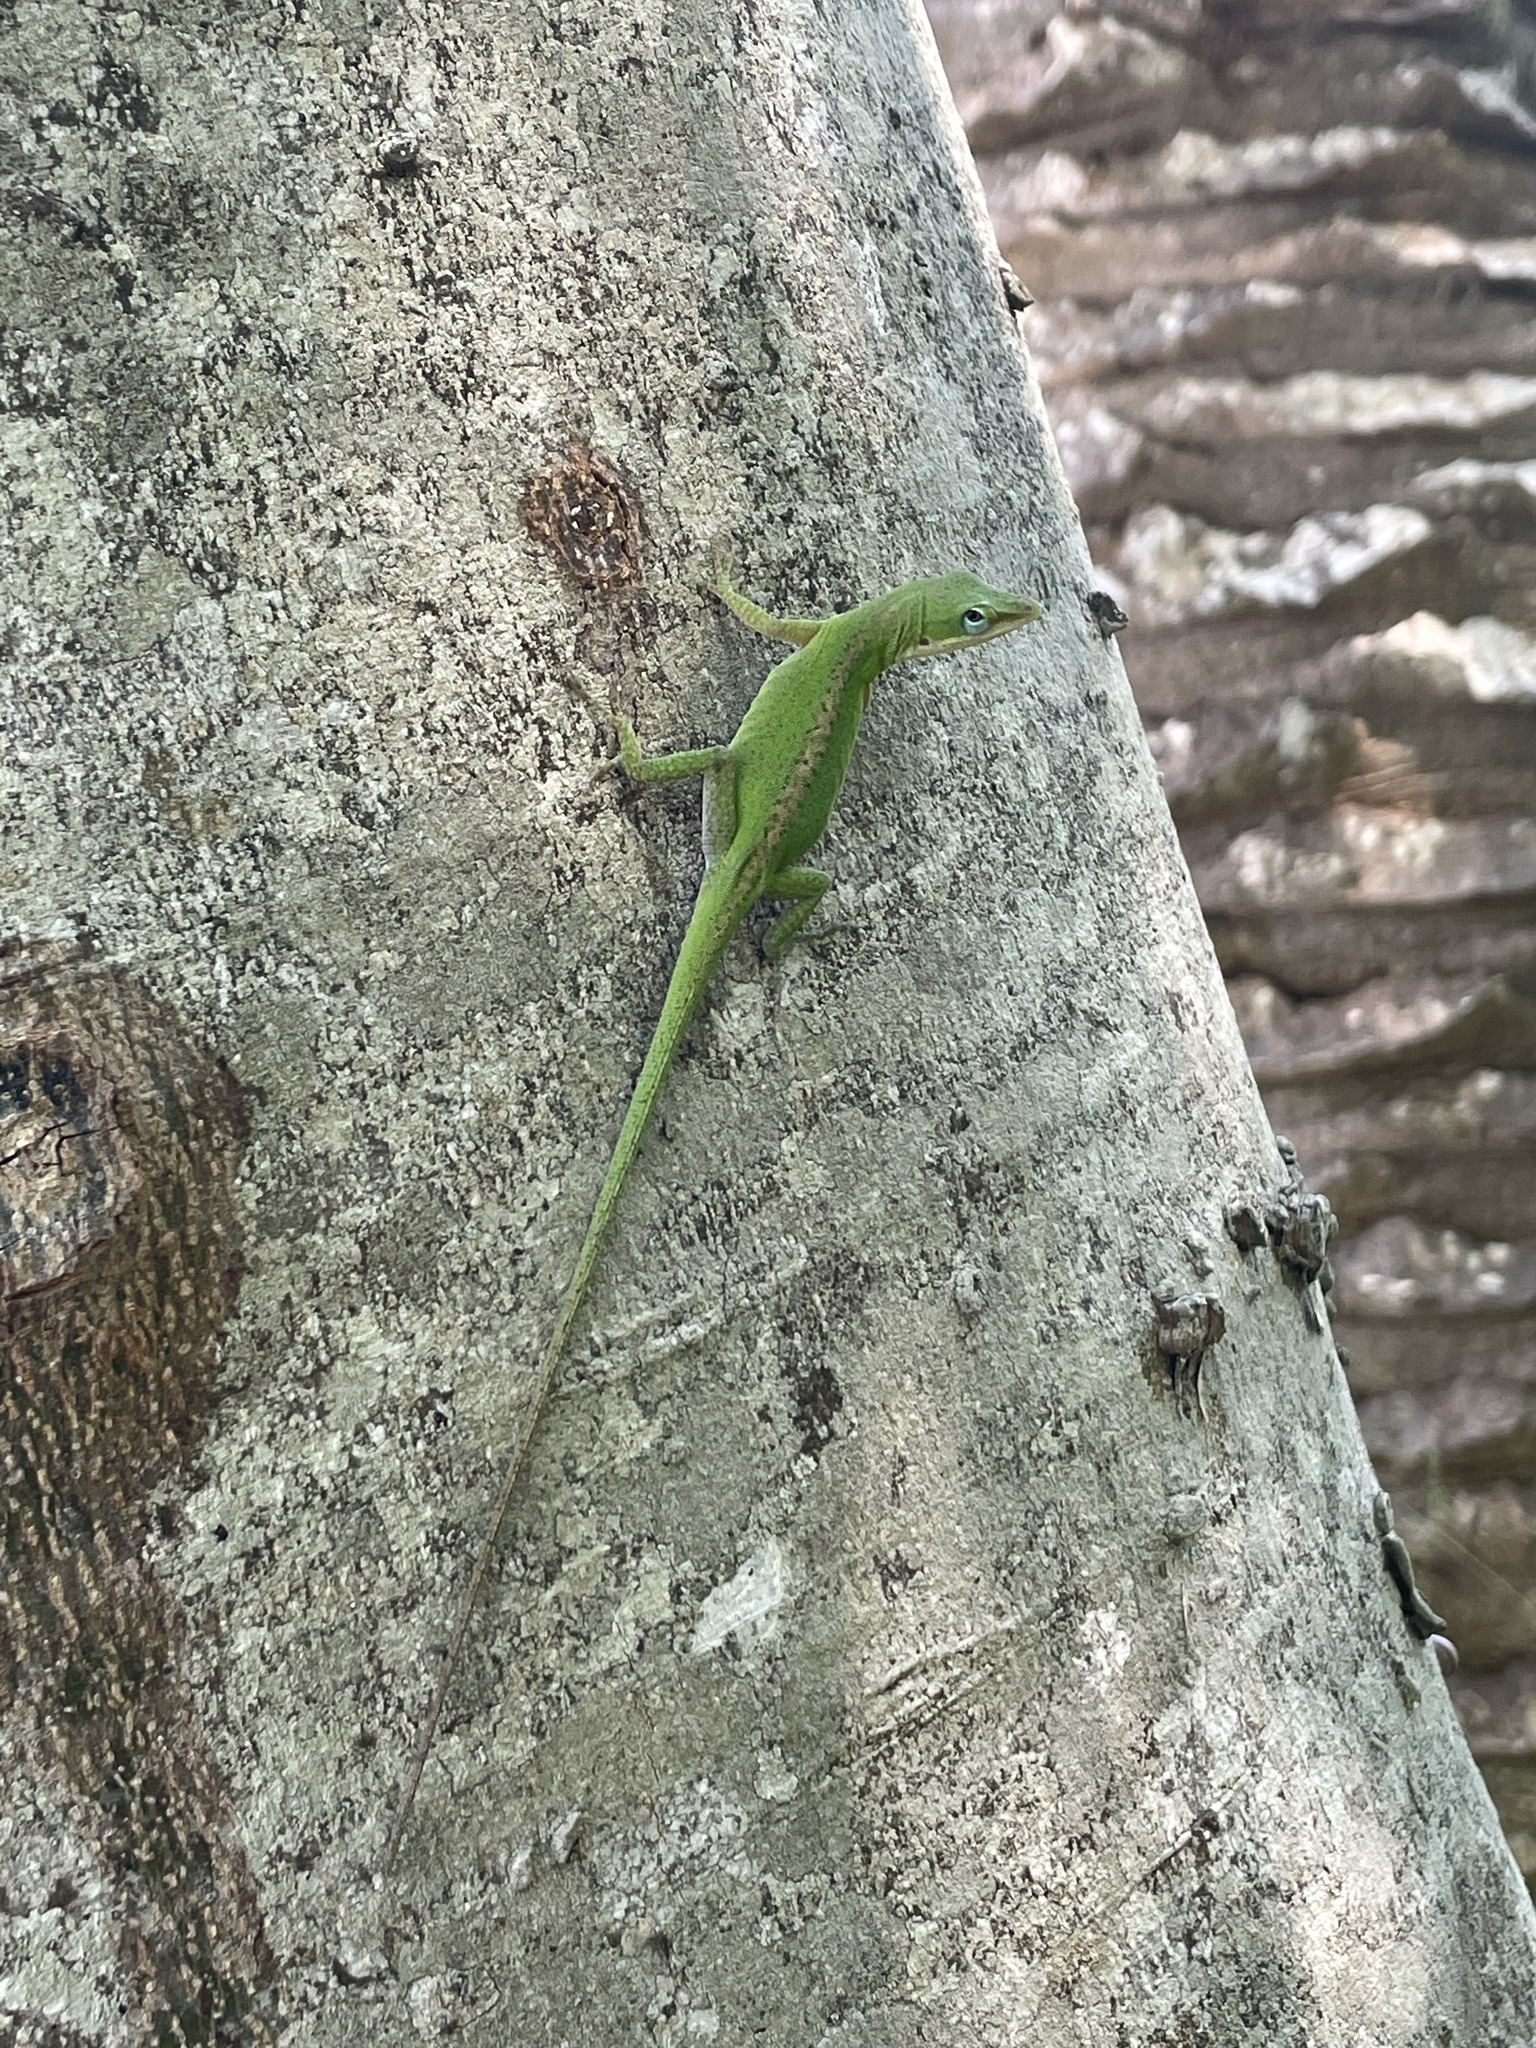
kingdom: Animalia
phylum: Chordata
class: Squamata
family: Dactyloidae
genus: Anolis
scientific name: Anolis carolinensis
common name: Green anole
